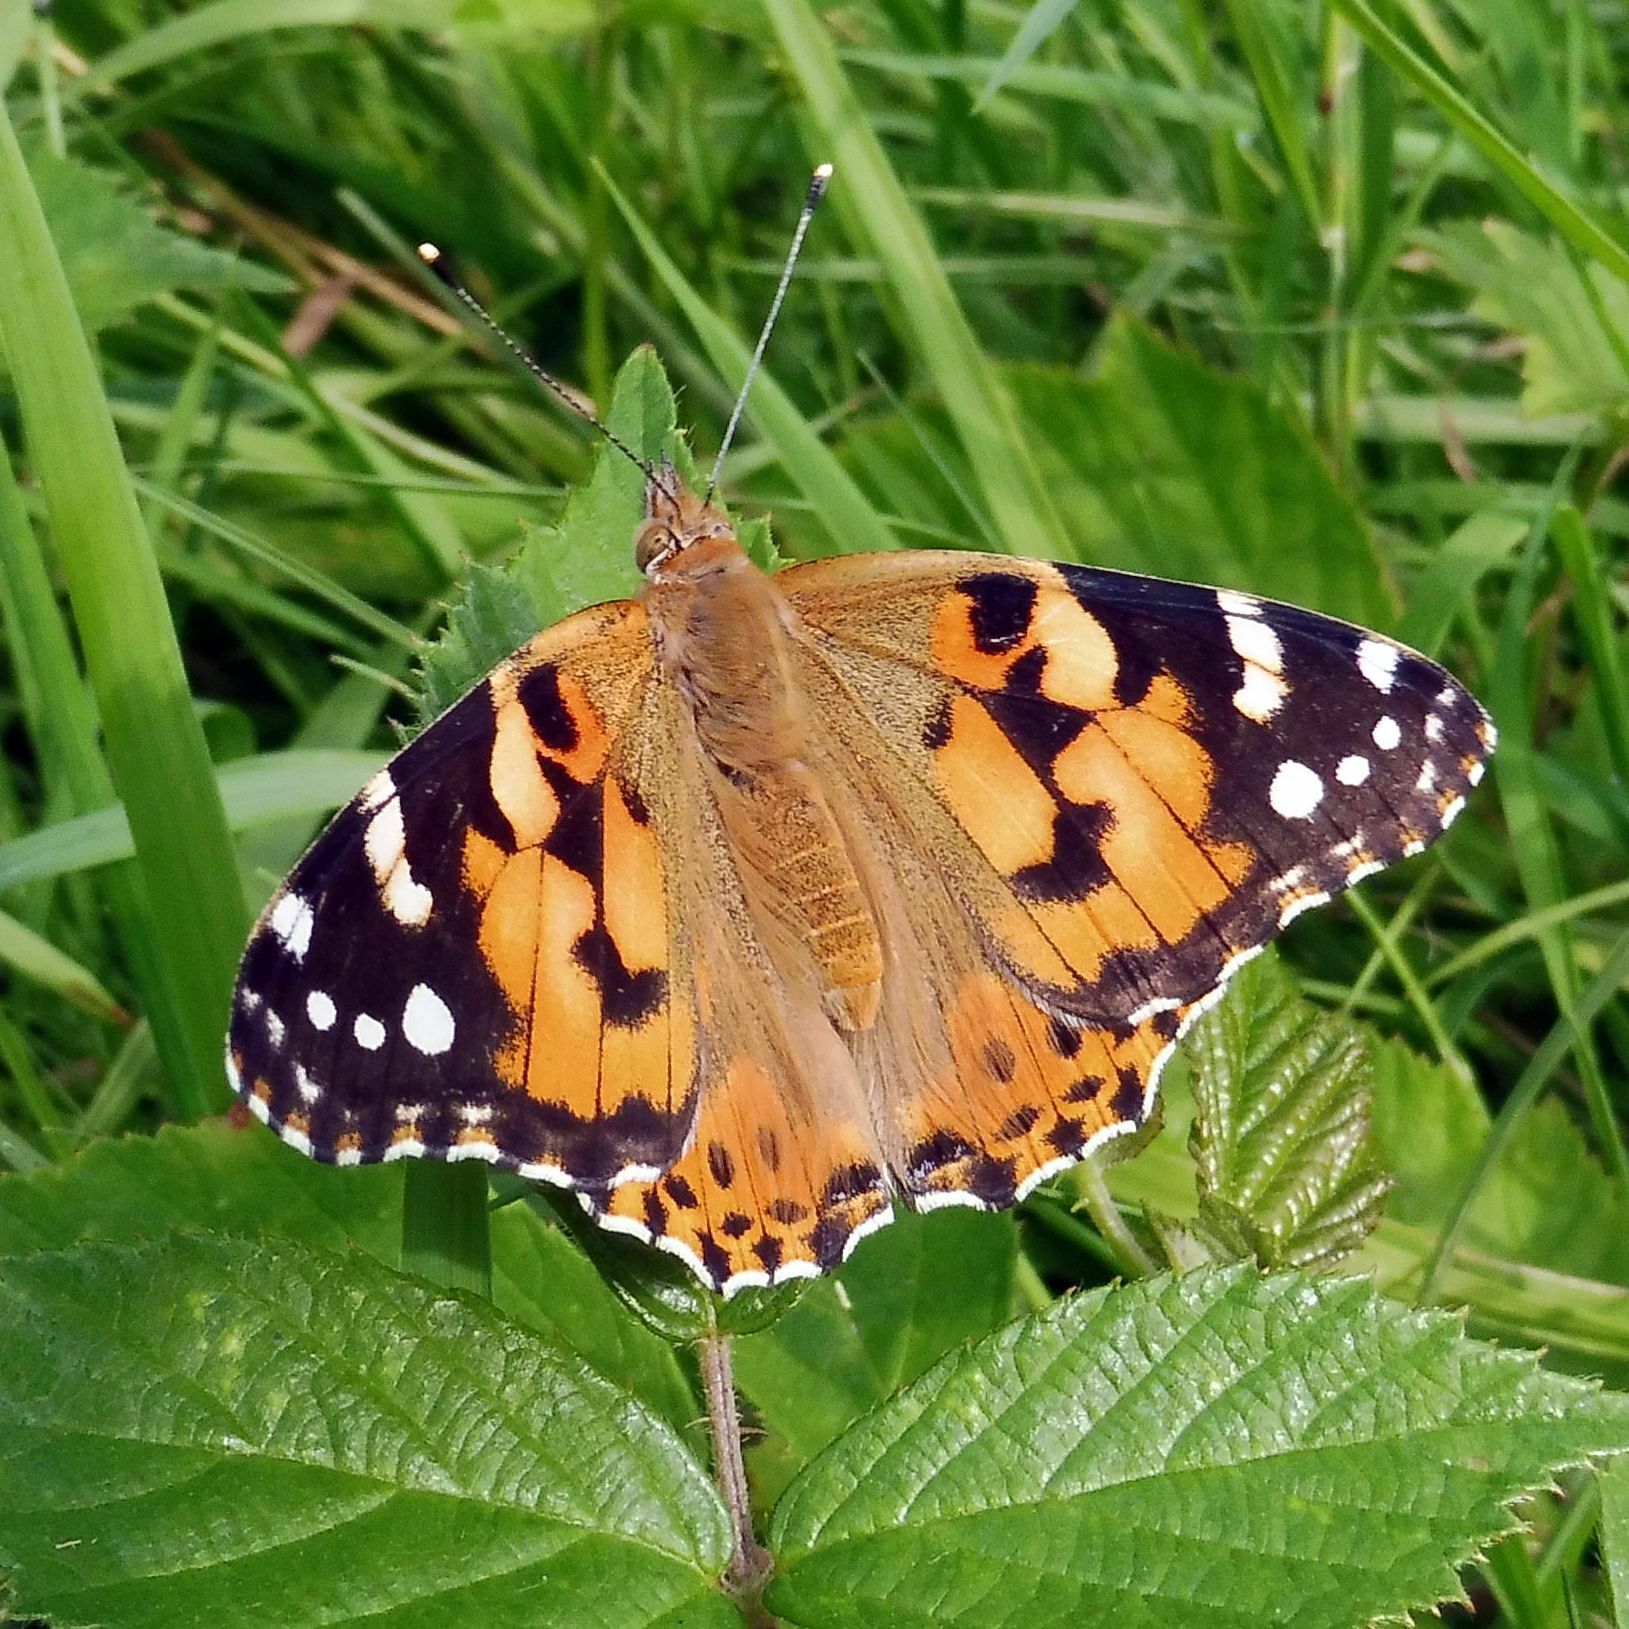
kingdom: Animalia
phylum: Arthropoda
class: Insecta
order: Lepidoptera
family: Nymphalidae
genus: Vanessa
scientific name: Vanessa cardui
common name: Painted lady
